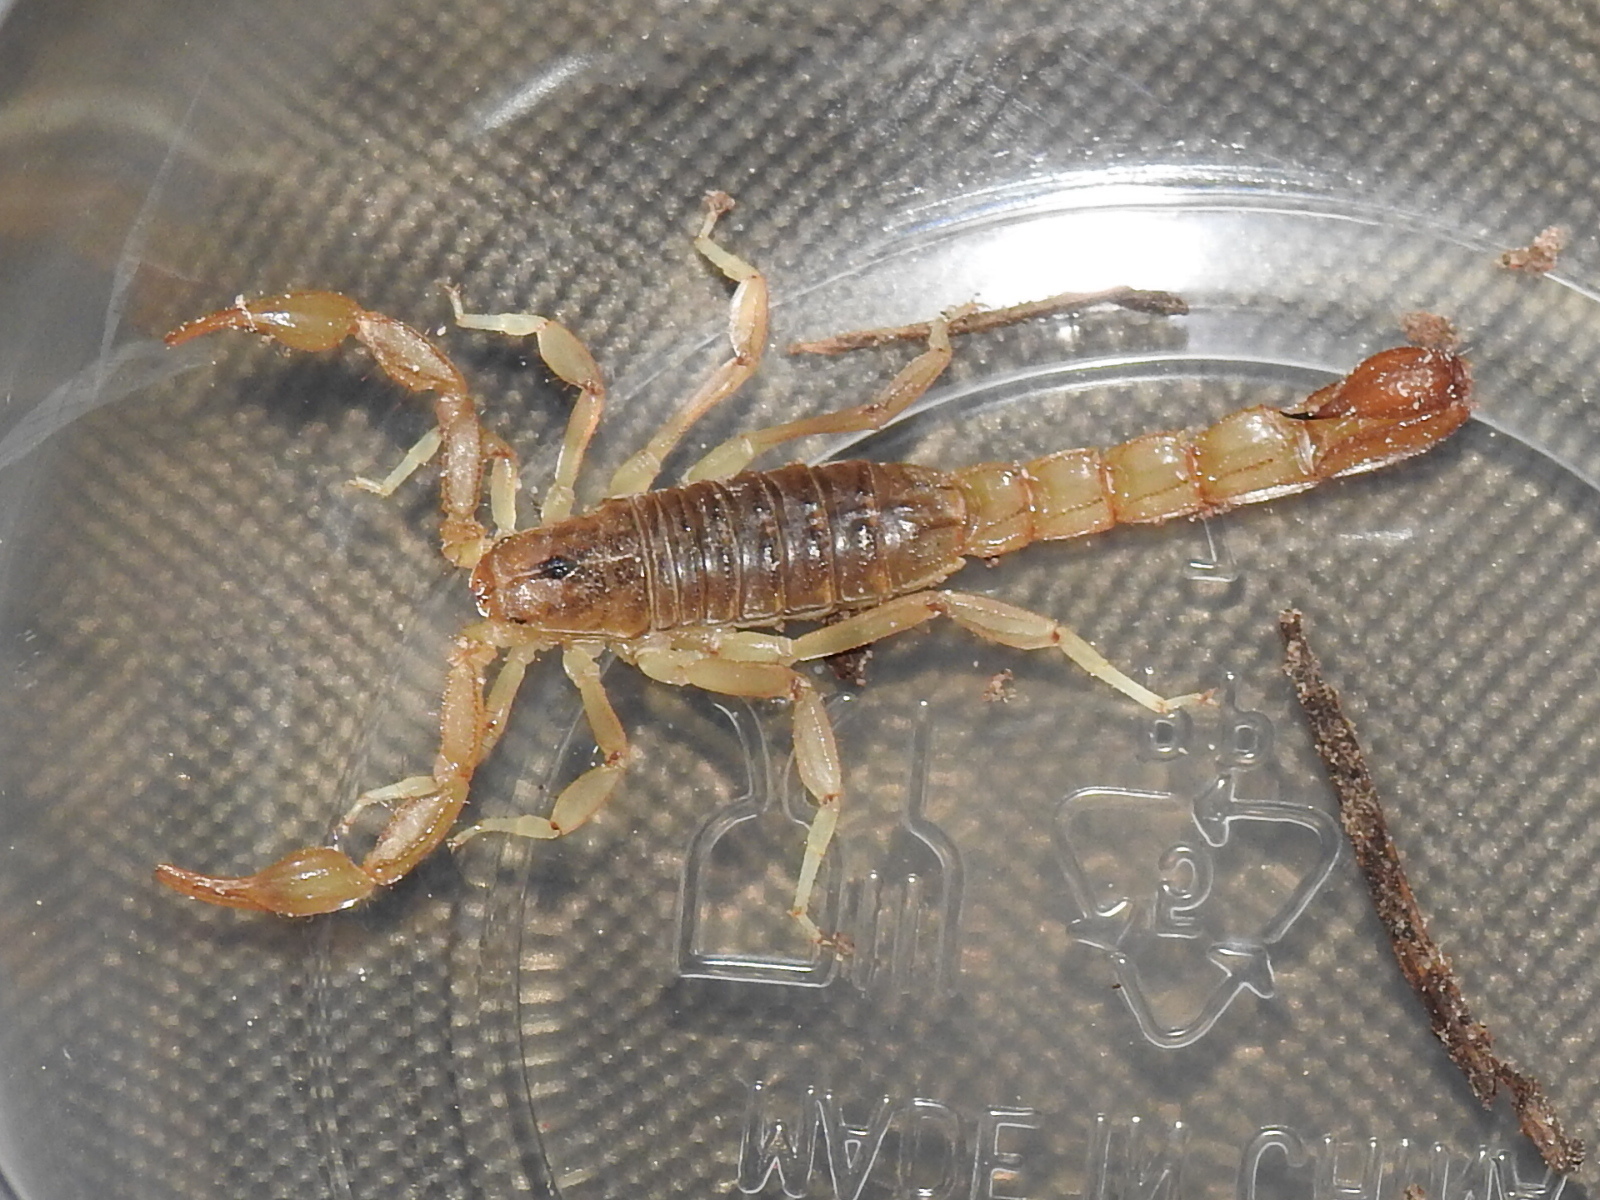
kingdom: Animalia
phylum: Arthropoda
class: Arachnida
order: Scorpiones
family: Vaejovidae
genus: Paravaejovis
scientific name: Paravaejovis spinigerus
